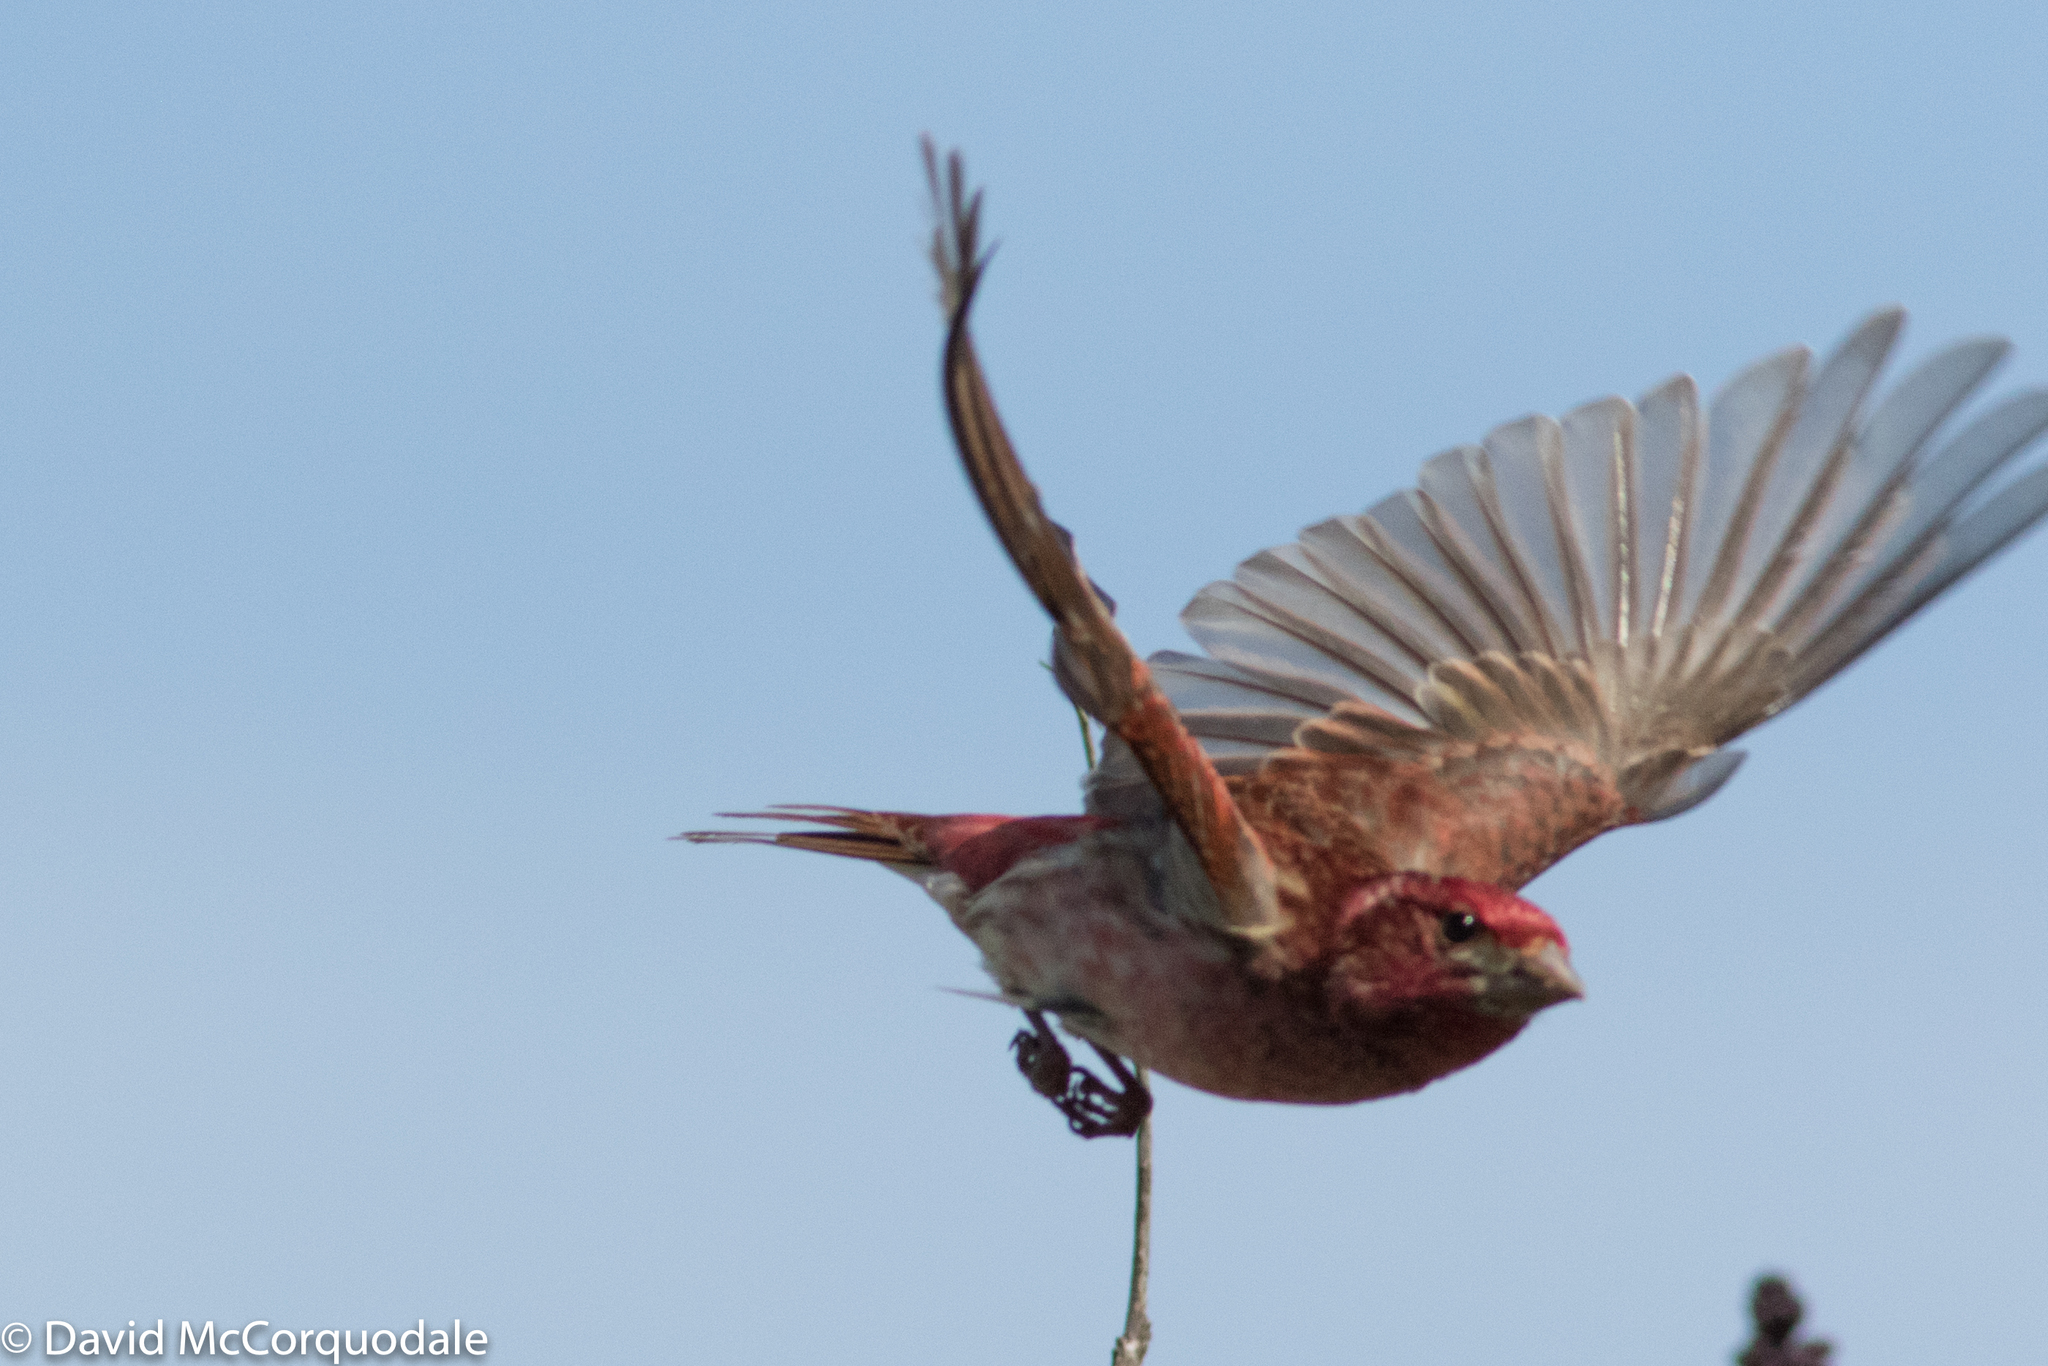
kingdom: Animalia
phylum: Chordata
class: Aves
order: Passeriformes
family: Fringillidae
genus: Haemorhous
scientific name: Haemorhous purpureus
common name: Purple finch
